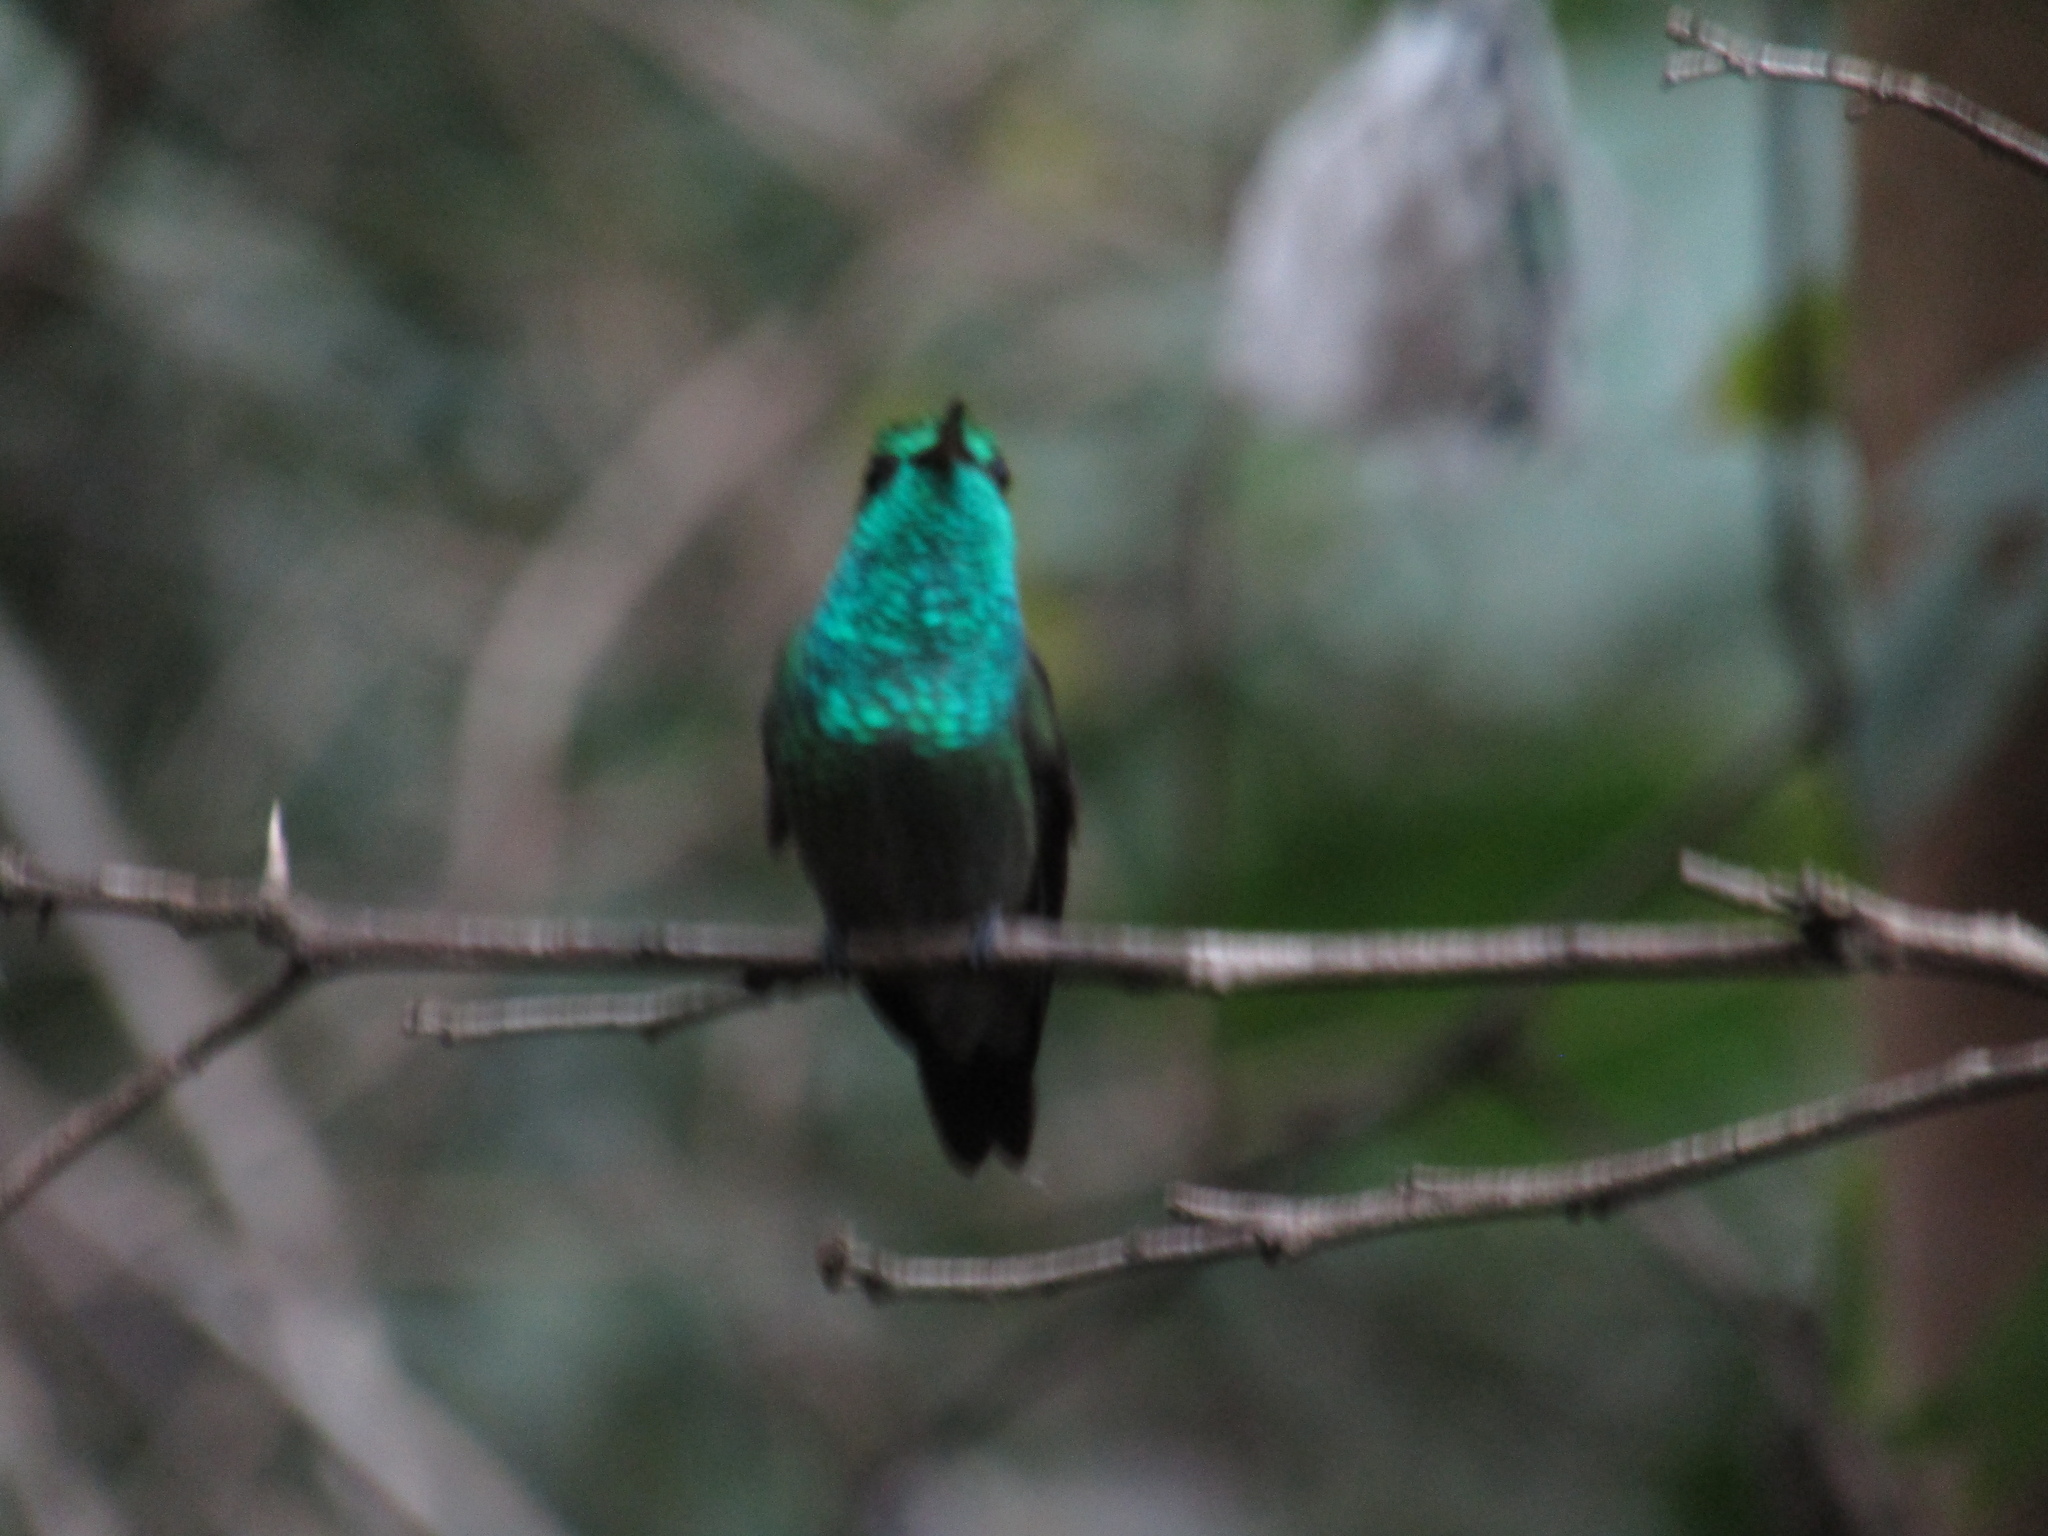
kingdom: Animalia
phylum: Chordata
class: Aves
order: Apodiformes
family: Trochilidae
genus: Chrysuronia
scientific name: Chrysuronia versicolor
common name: Versicolored emerald
